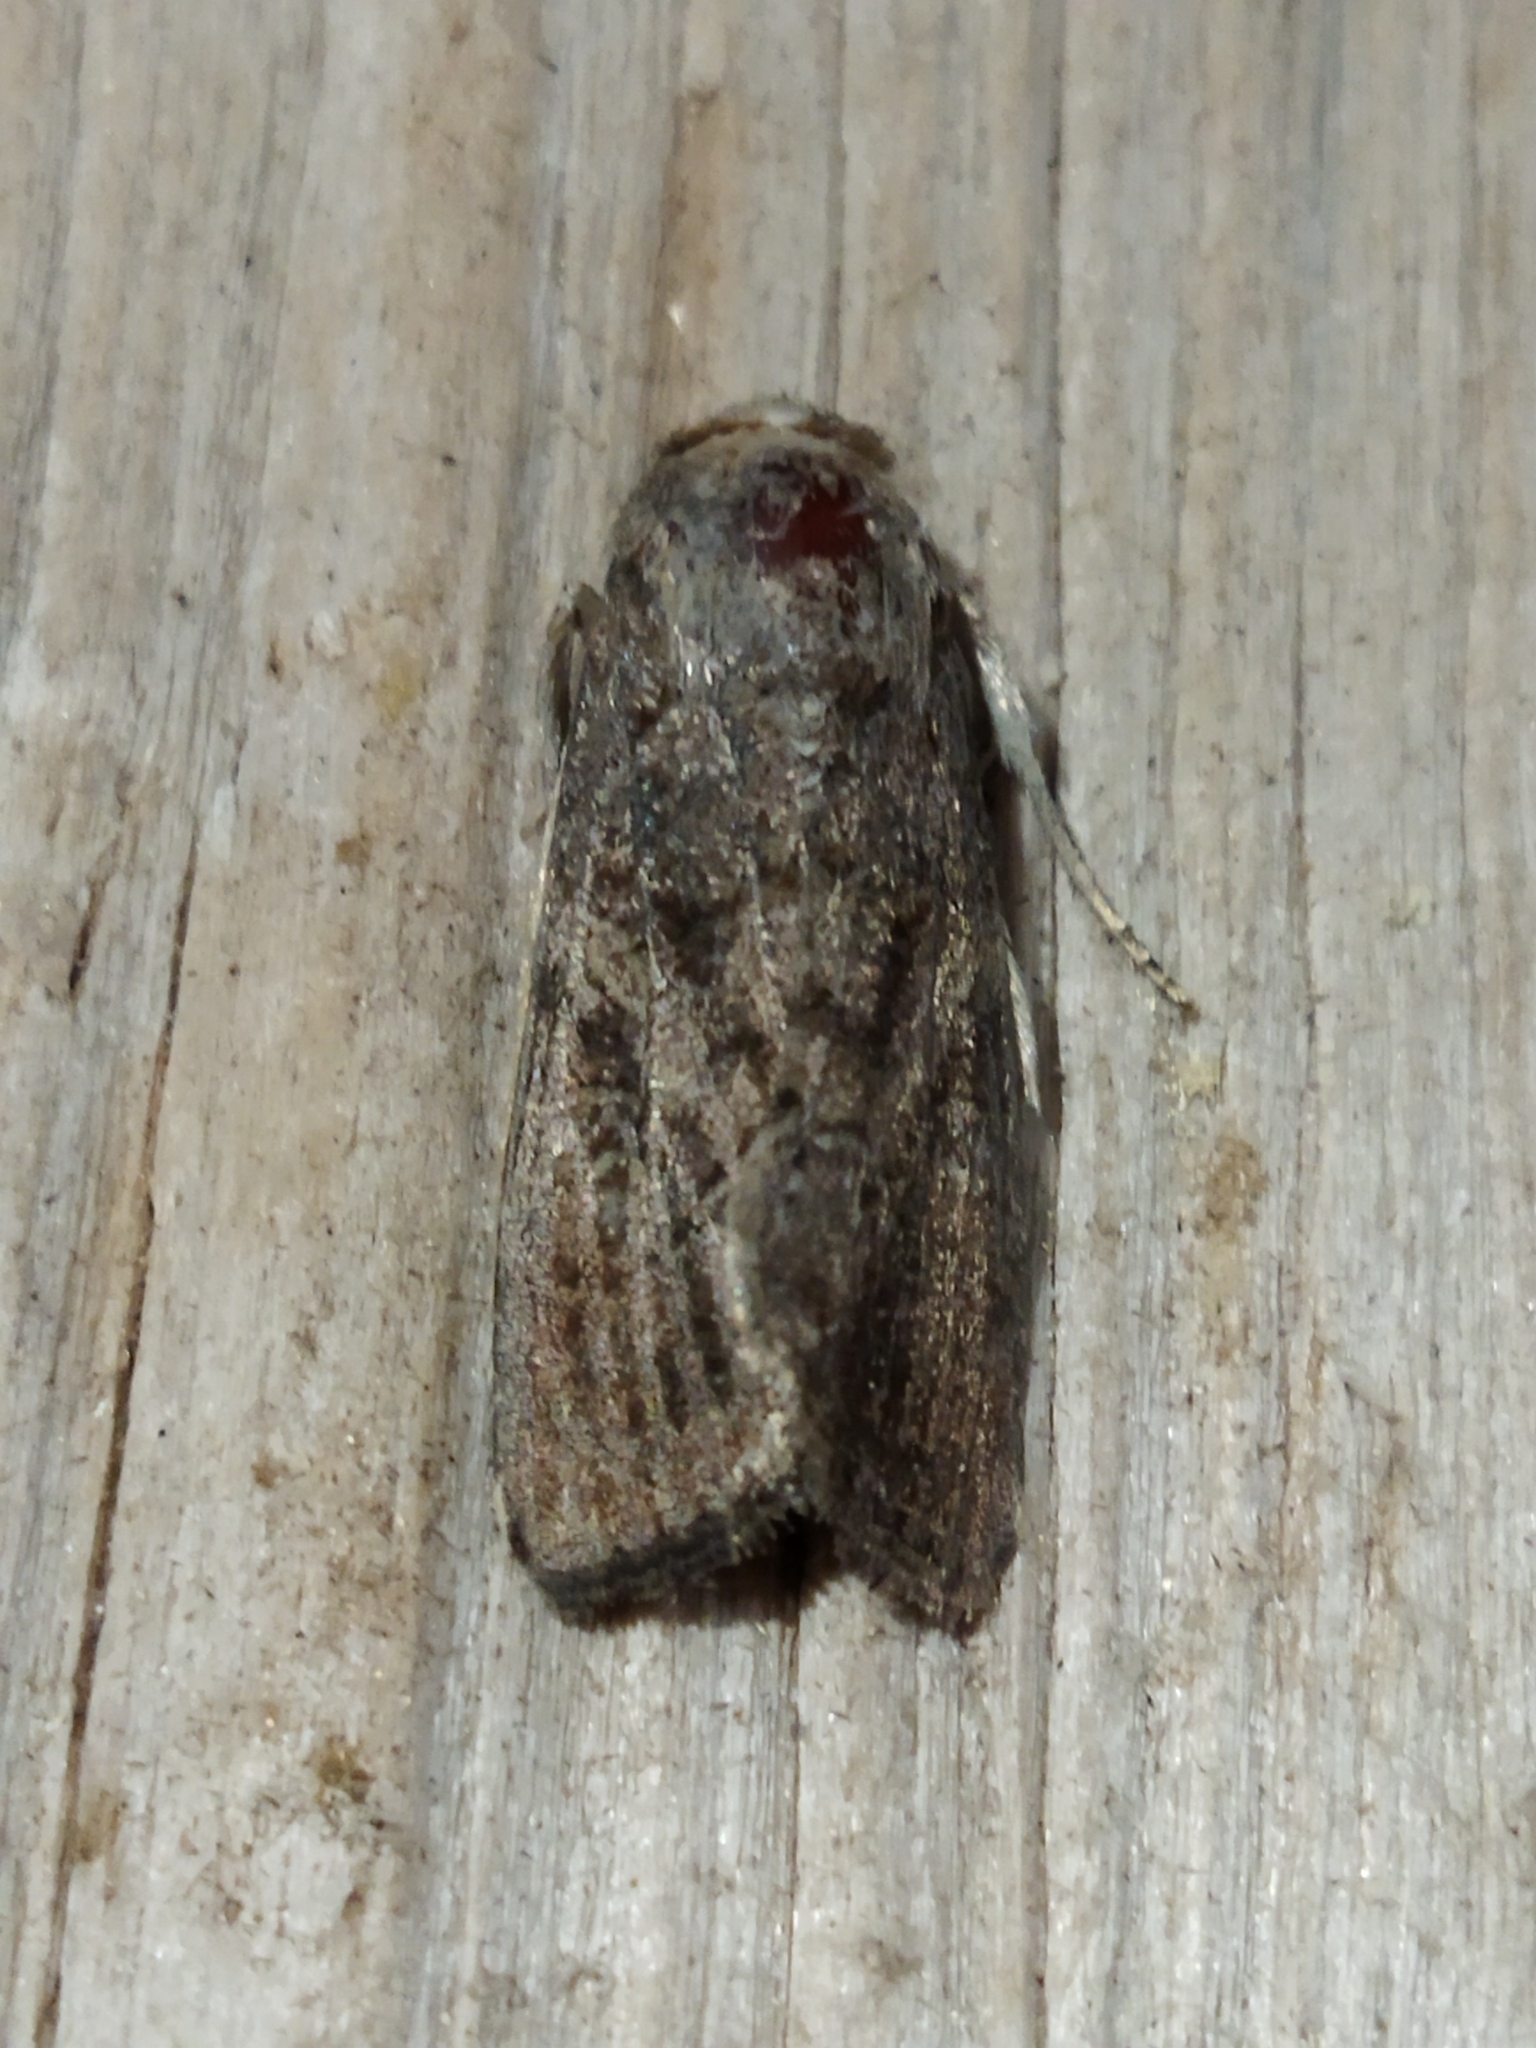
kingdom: Animalia
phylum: Arthropoda
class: Insecta
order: Lepidoptera
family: Noctuidae
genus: Spodoptera
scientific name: Spodoptera cilium
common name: Dark mottled willow
